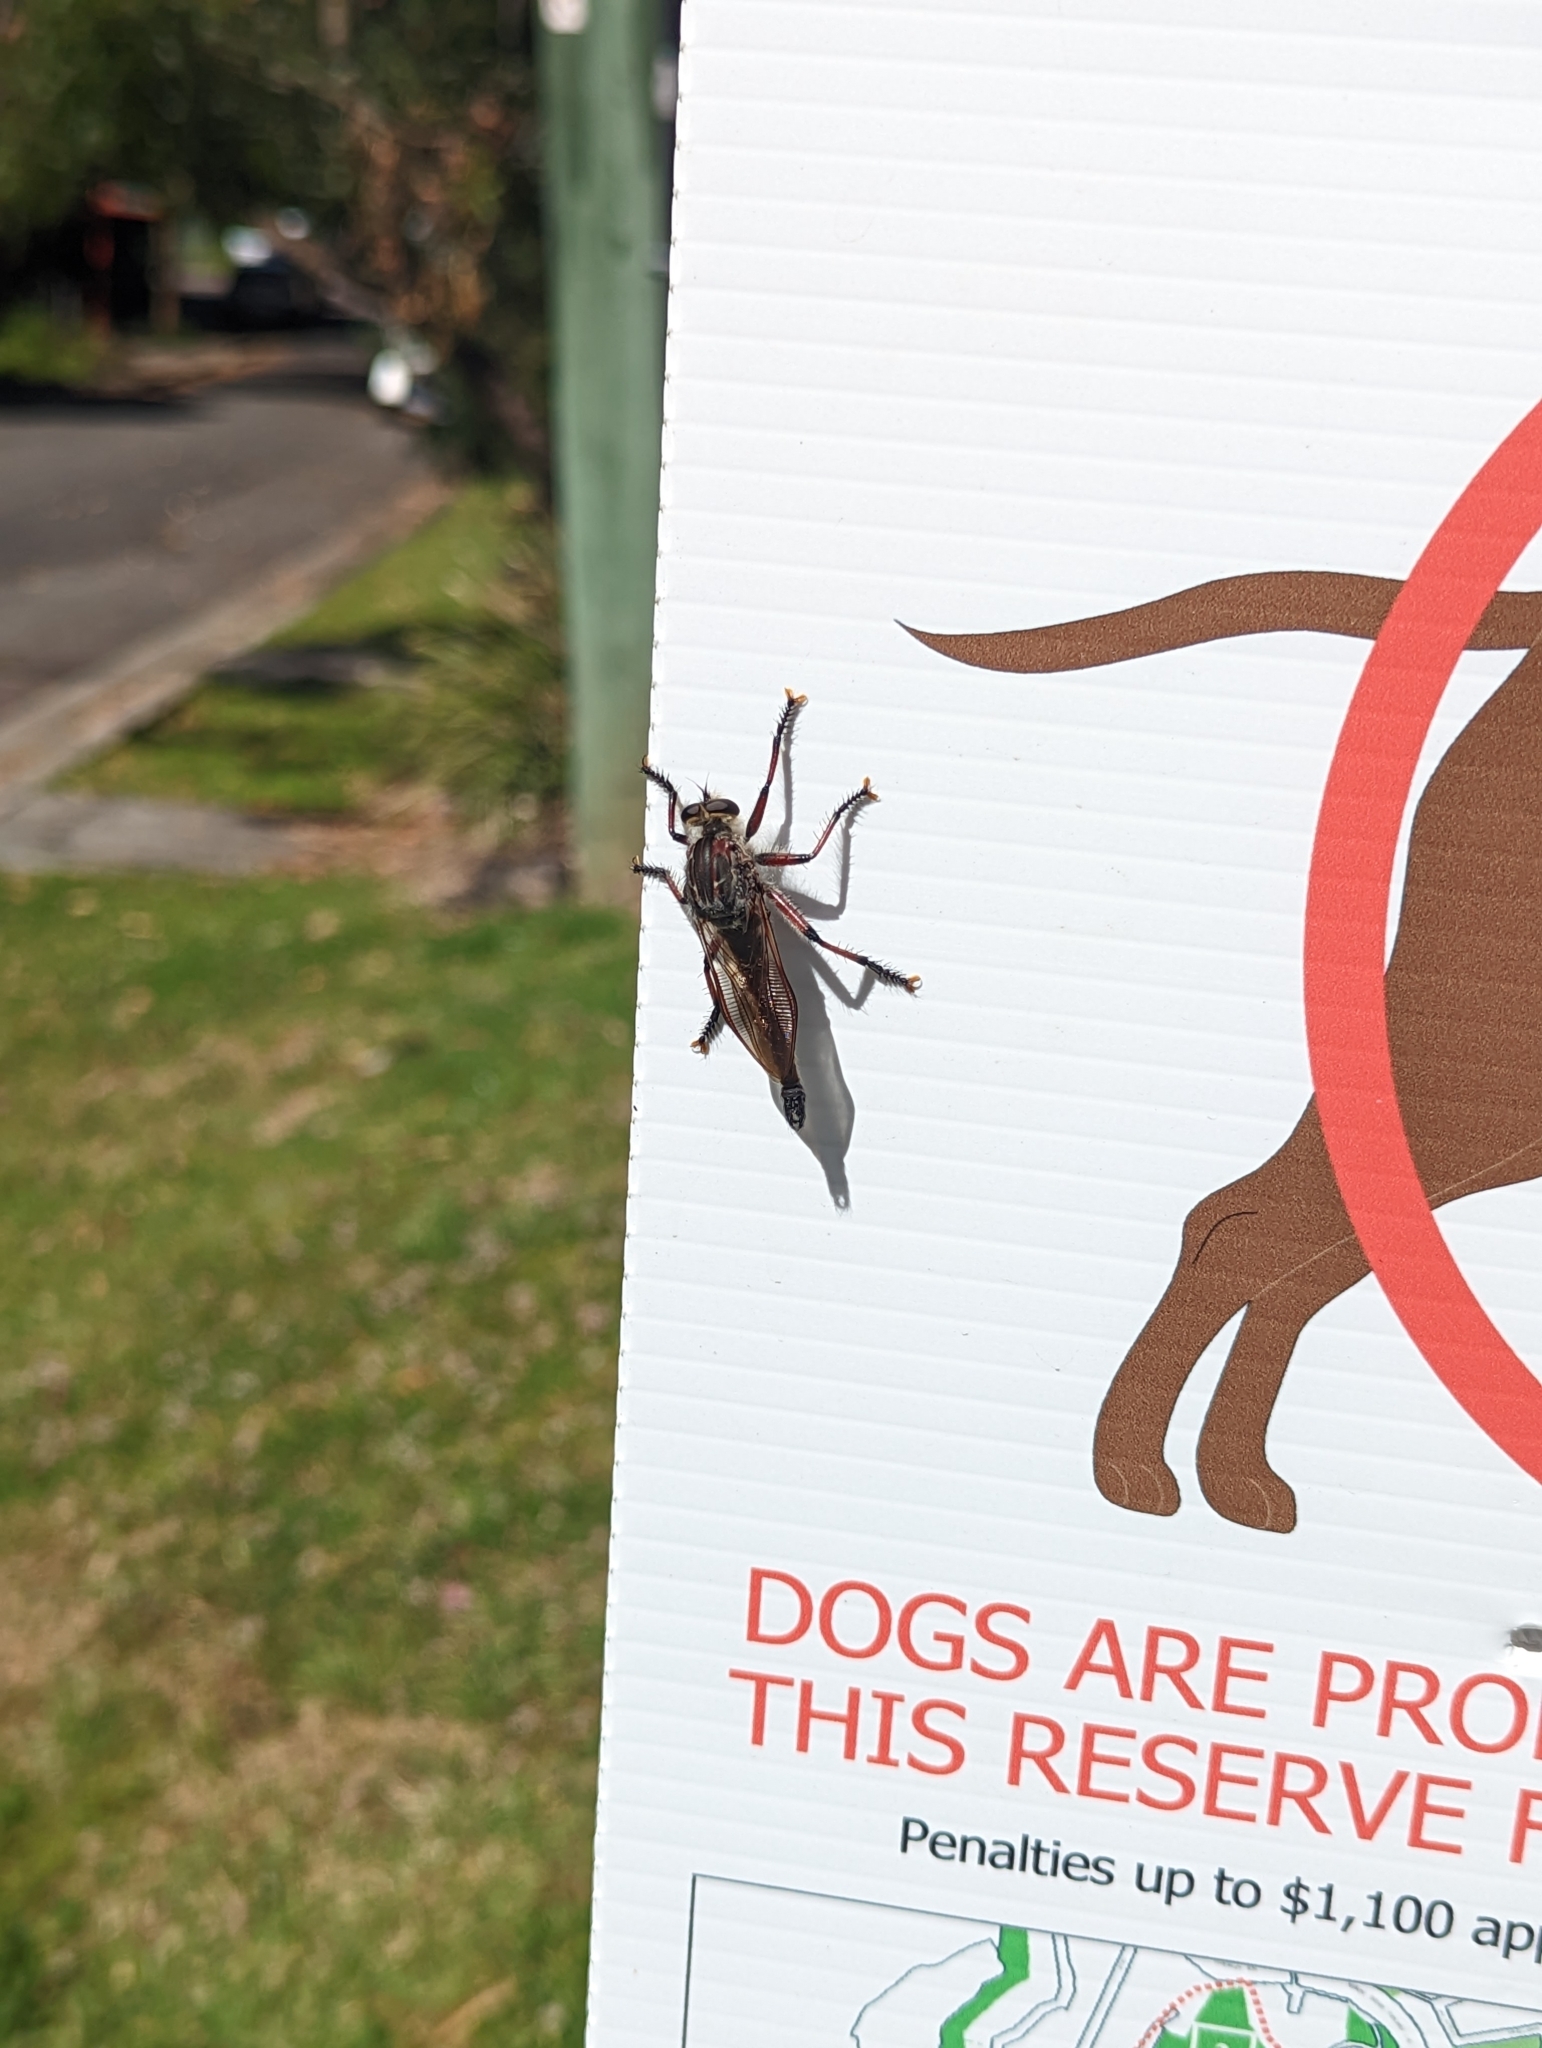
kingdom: Animalia
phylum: Arthropoda
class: Insecta
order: Diptera
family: Asilidae
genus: Neoaratus
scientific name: Neoaratus hercules
